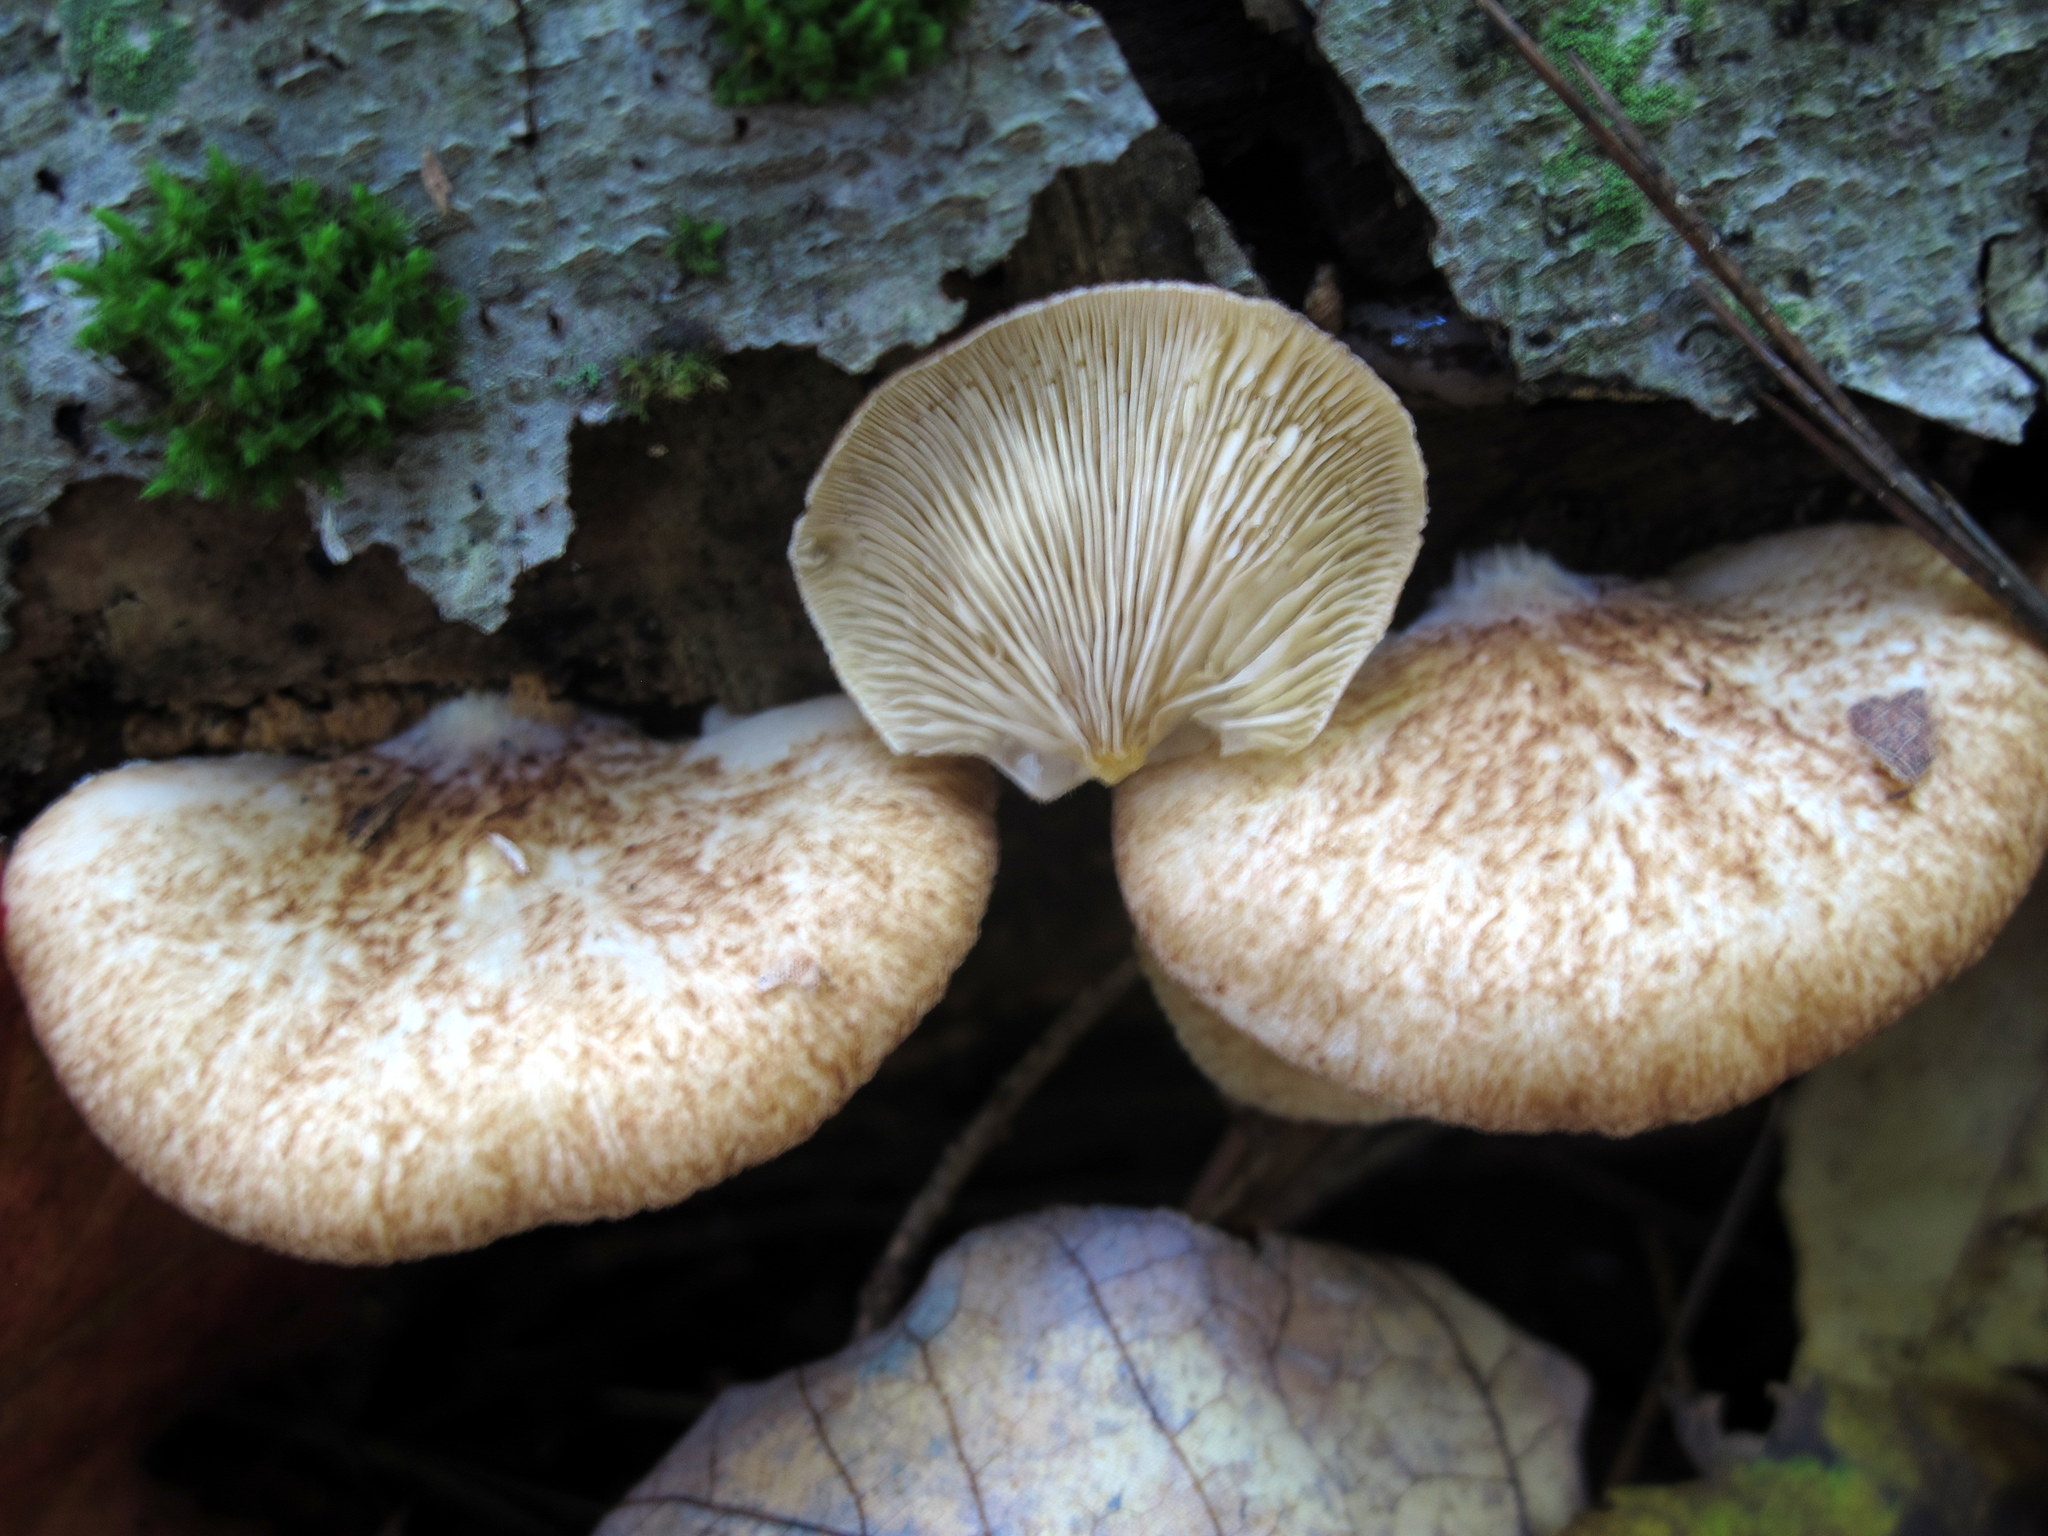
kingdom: Fungi
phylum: Basidiomycota
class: Agaricomycetes
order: Agaricales
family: Crepidotaceae
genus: Crepidotus
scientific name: Crepidotus mollis
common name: Peeling oysterling
